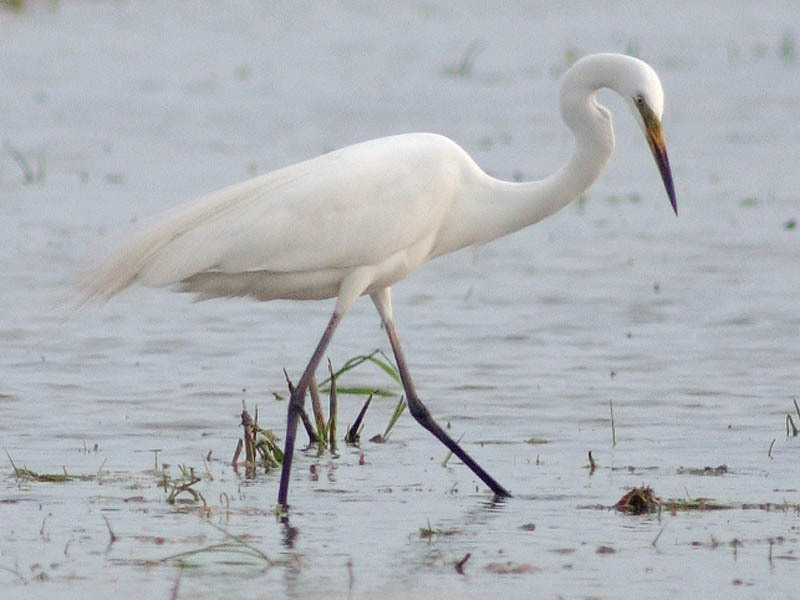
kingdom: Animalia
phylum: Chordata
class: Aves
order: Pelecaniformes
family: Ardeidae
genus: Ardea
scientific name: Ardea modesta
